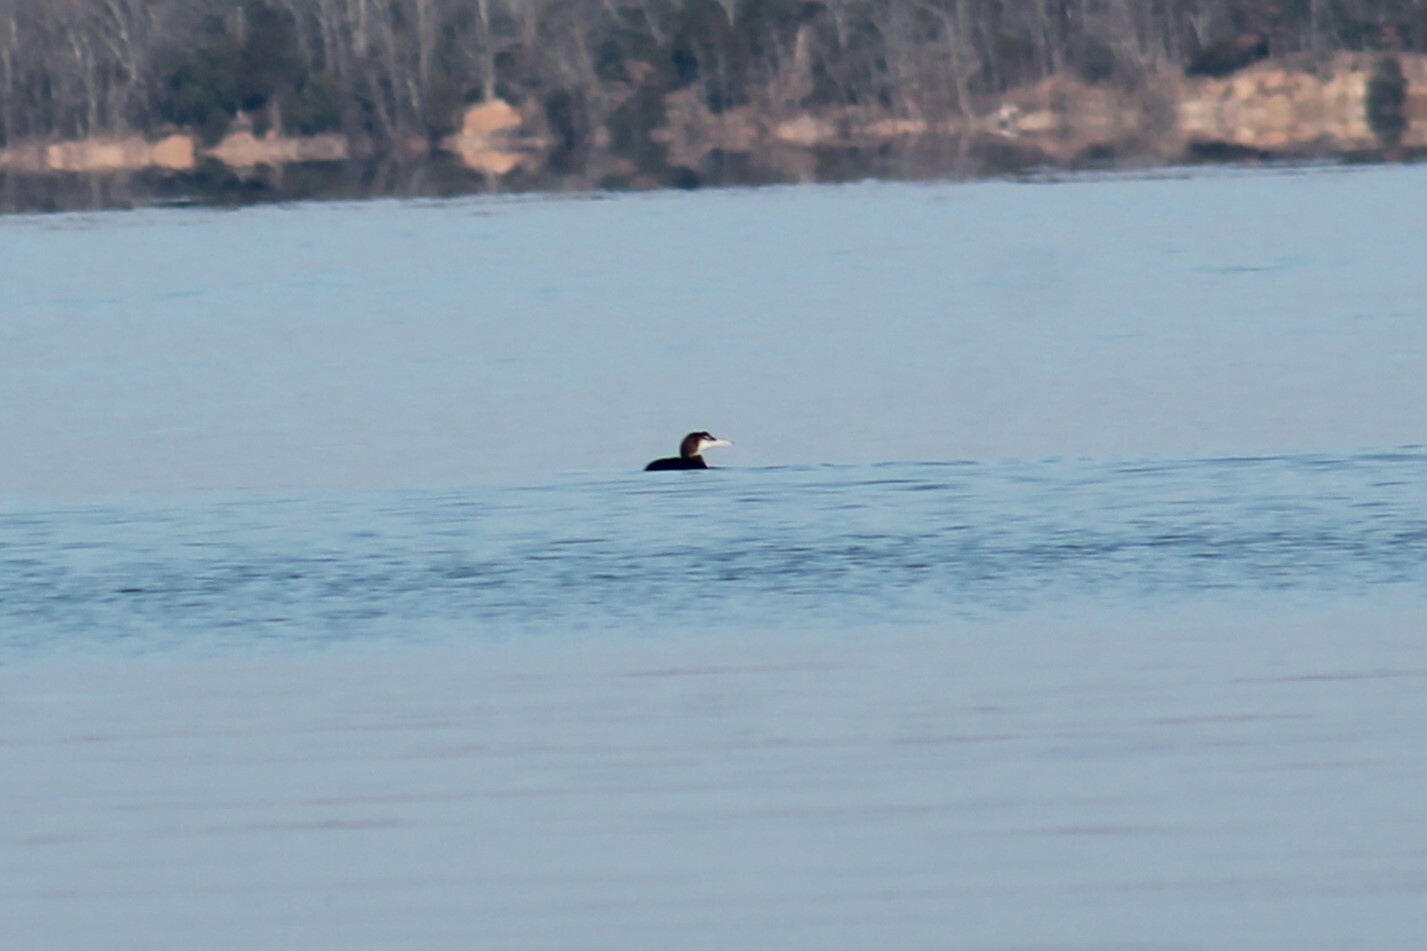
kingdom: Animalia
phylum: Chordata
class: Aves
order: Gaviiformes
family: Gaviidae
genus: Gavia
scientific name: Gavia immer
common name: Common loon
